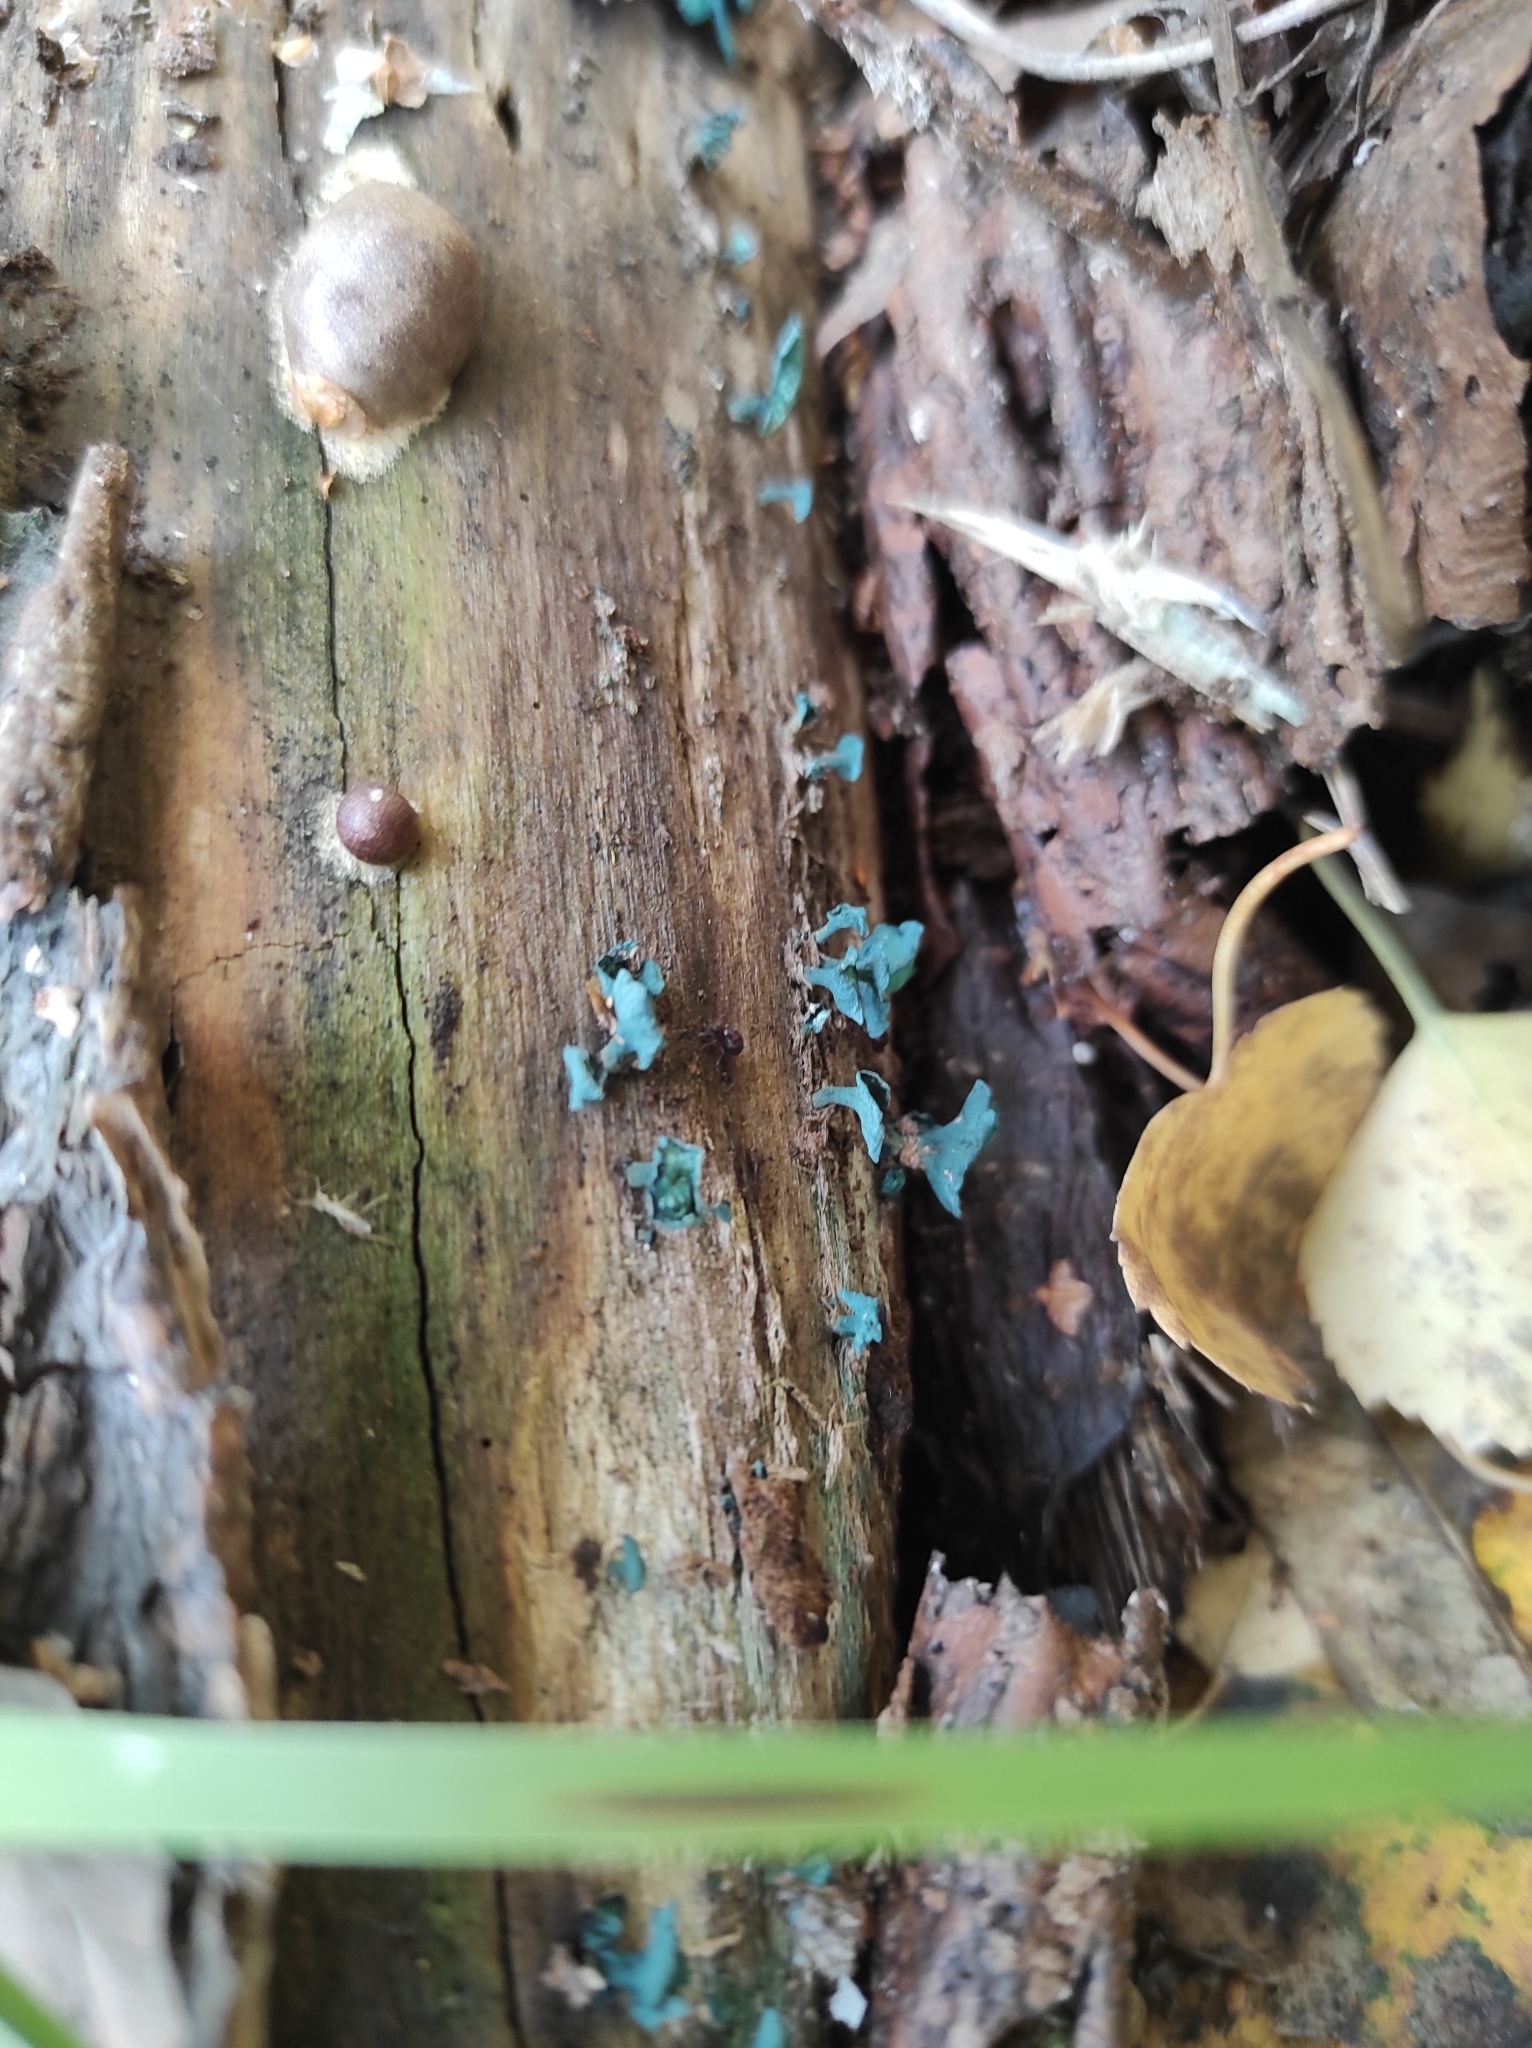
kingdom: Fungi
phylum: Ascomycota
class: Leotiomycetes
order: Helotiales
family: Chlorociboriaceae
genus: Chlorociboria
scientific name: Chlorociboria aeruginascens
